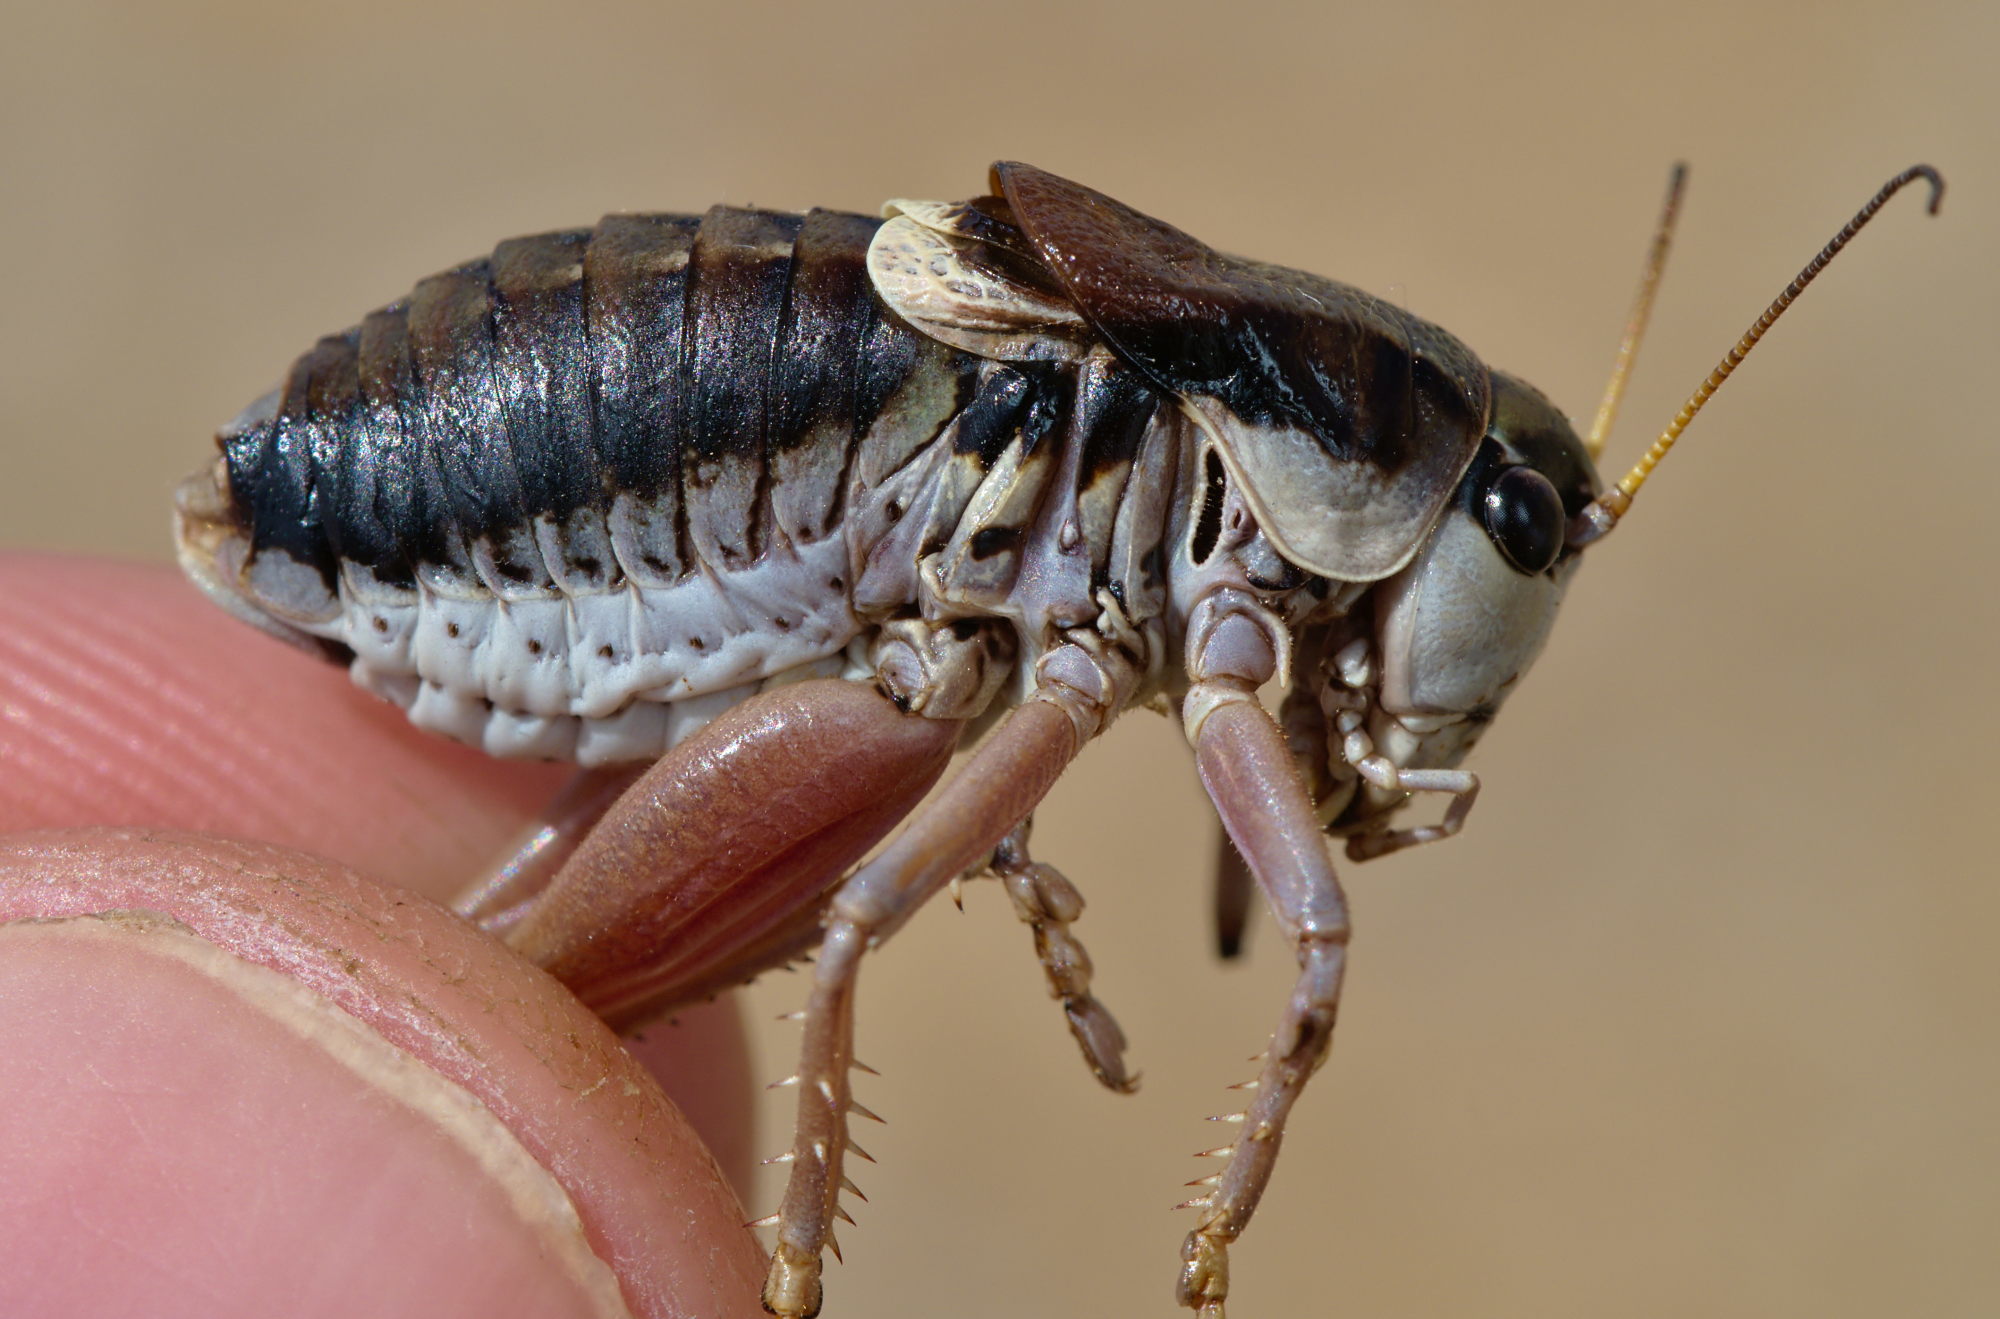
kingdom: Animalia
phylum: Arthropoda
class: Insecta
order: Orthoptera
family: Tettigoniidae
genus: Anonconotus
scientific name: Anonconotus ghilianii
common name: Ghiliani's alpine bush-cricket
